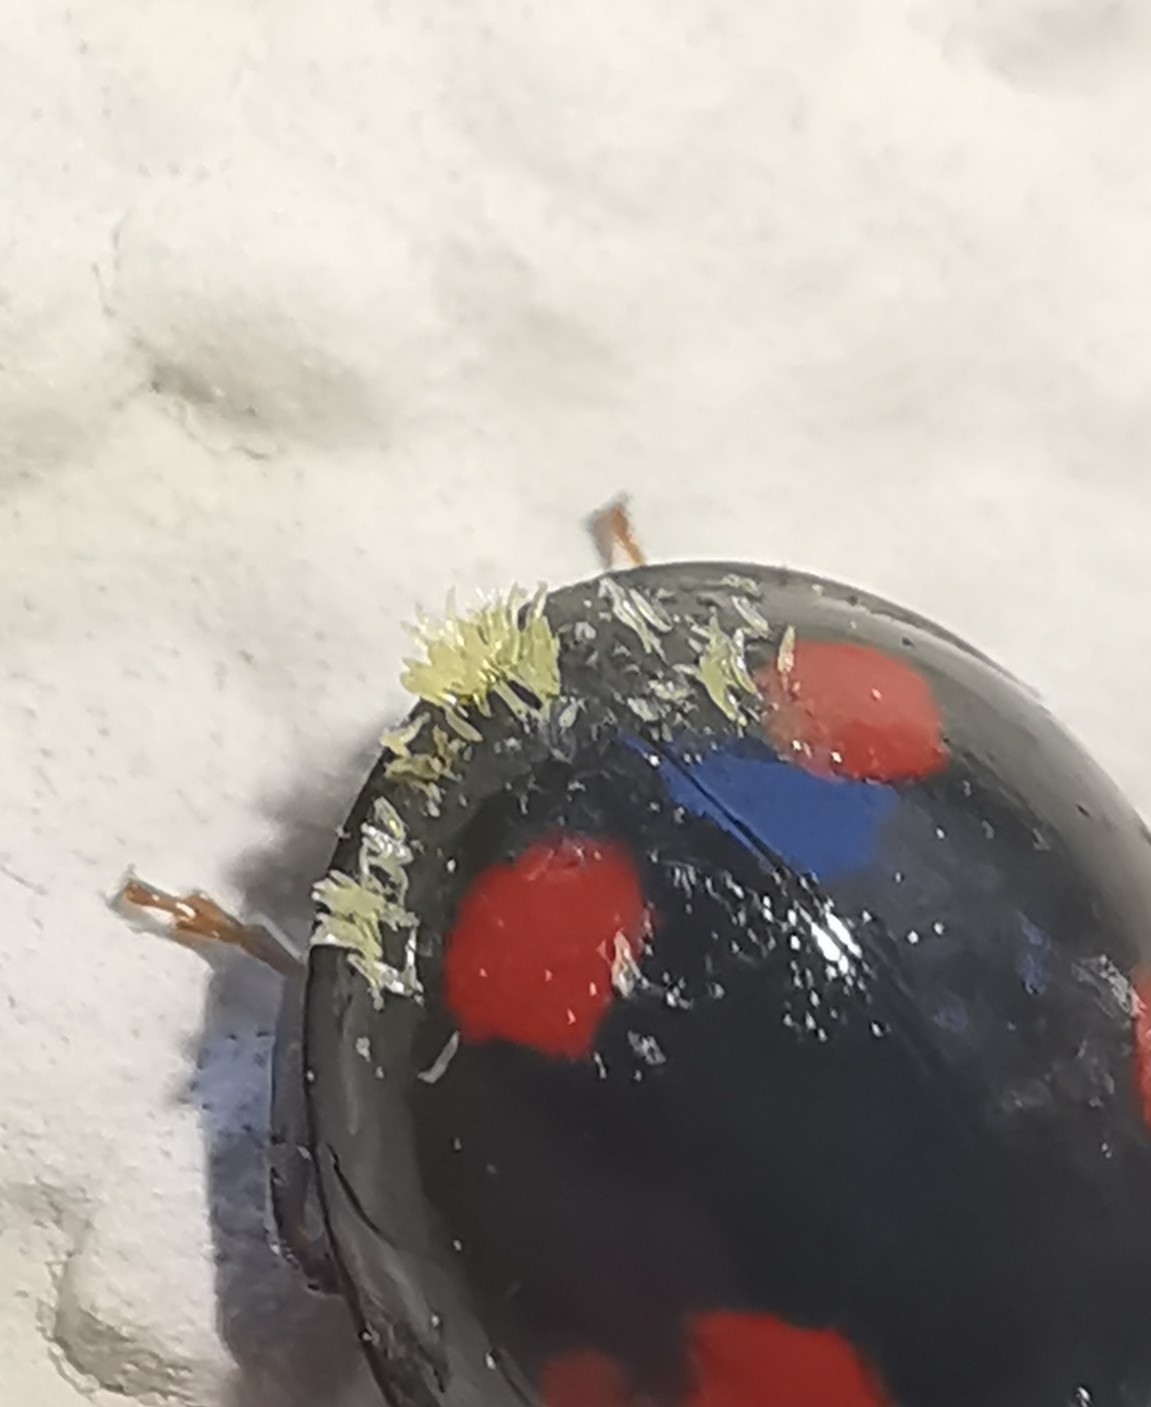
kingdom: Fungi
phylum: Ascomycota
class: Laboulbeniomycetes
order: Laboulbeniales
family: Laboulbeniaceae
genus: Hesperomyces
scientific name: Hesperomyces harmoniae
